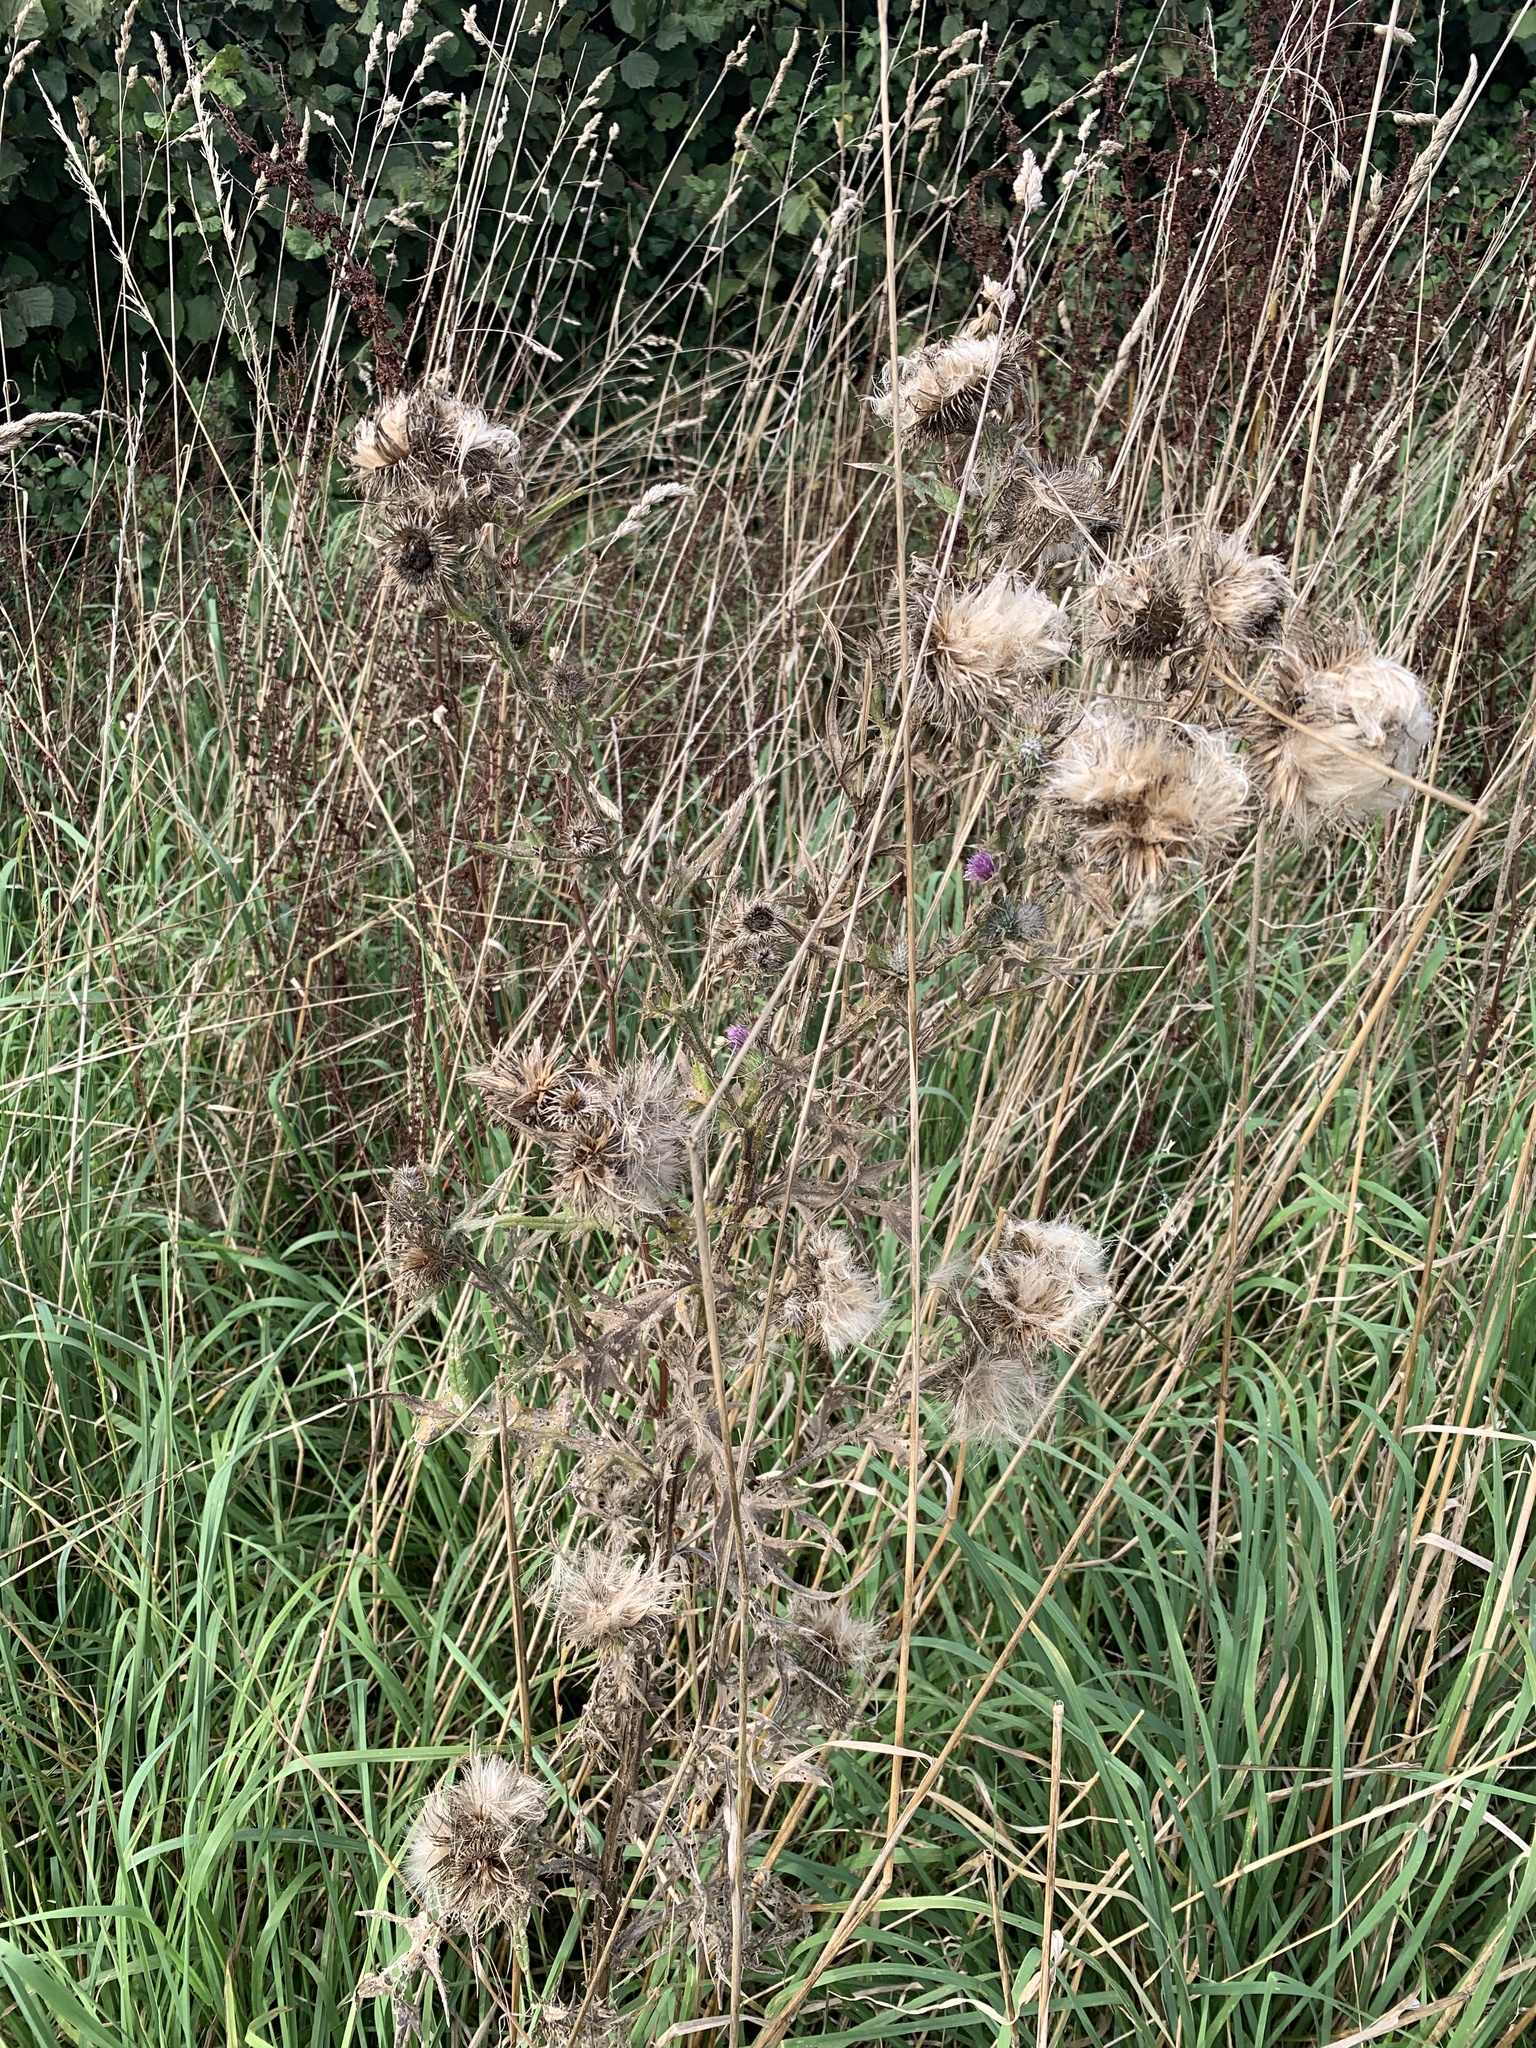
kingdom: Plantae
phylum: Tracheophyta
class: Magnoliopsida
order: Asterales
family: Asteraceae
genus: Cirsium
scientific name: Cirsium arvense
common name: Creeping thistle
